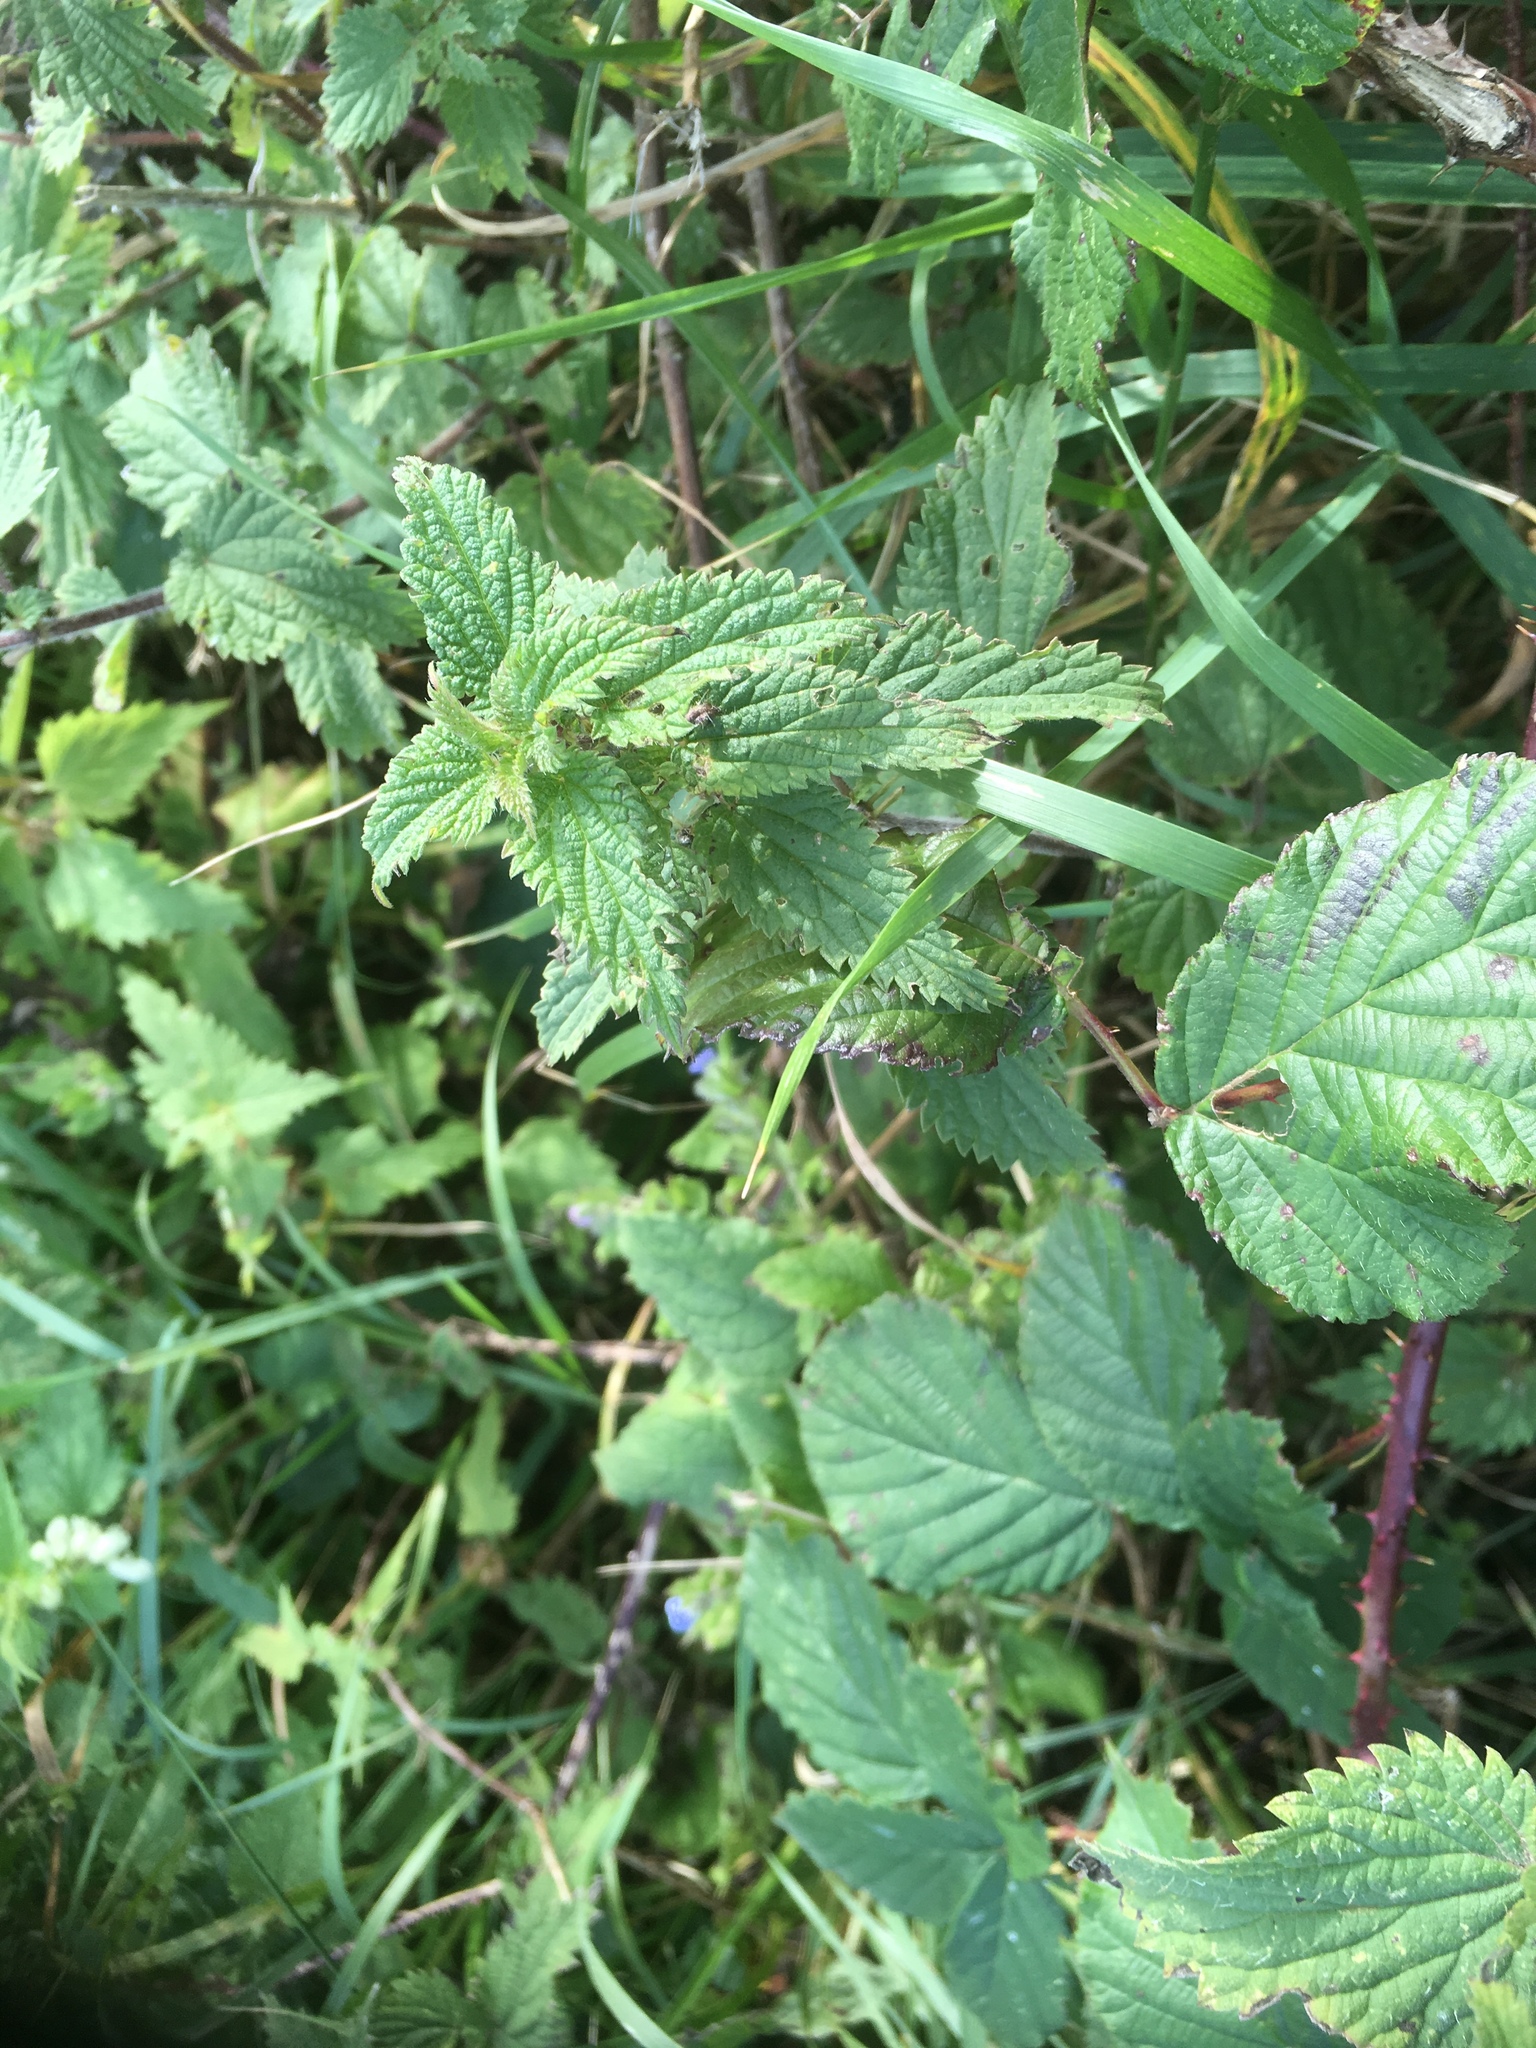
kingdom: Plantae
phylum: Tracheophyta
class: Magnoliopsida
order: Rosales
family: Urticaceae
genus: Urtica
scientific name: Urtica dioica
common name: Common nettle
